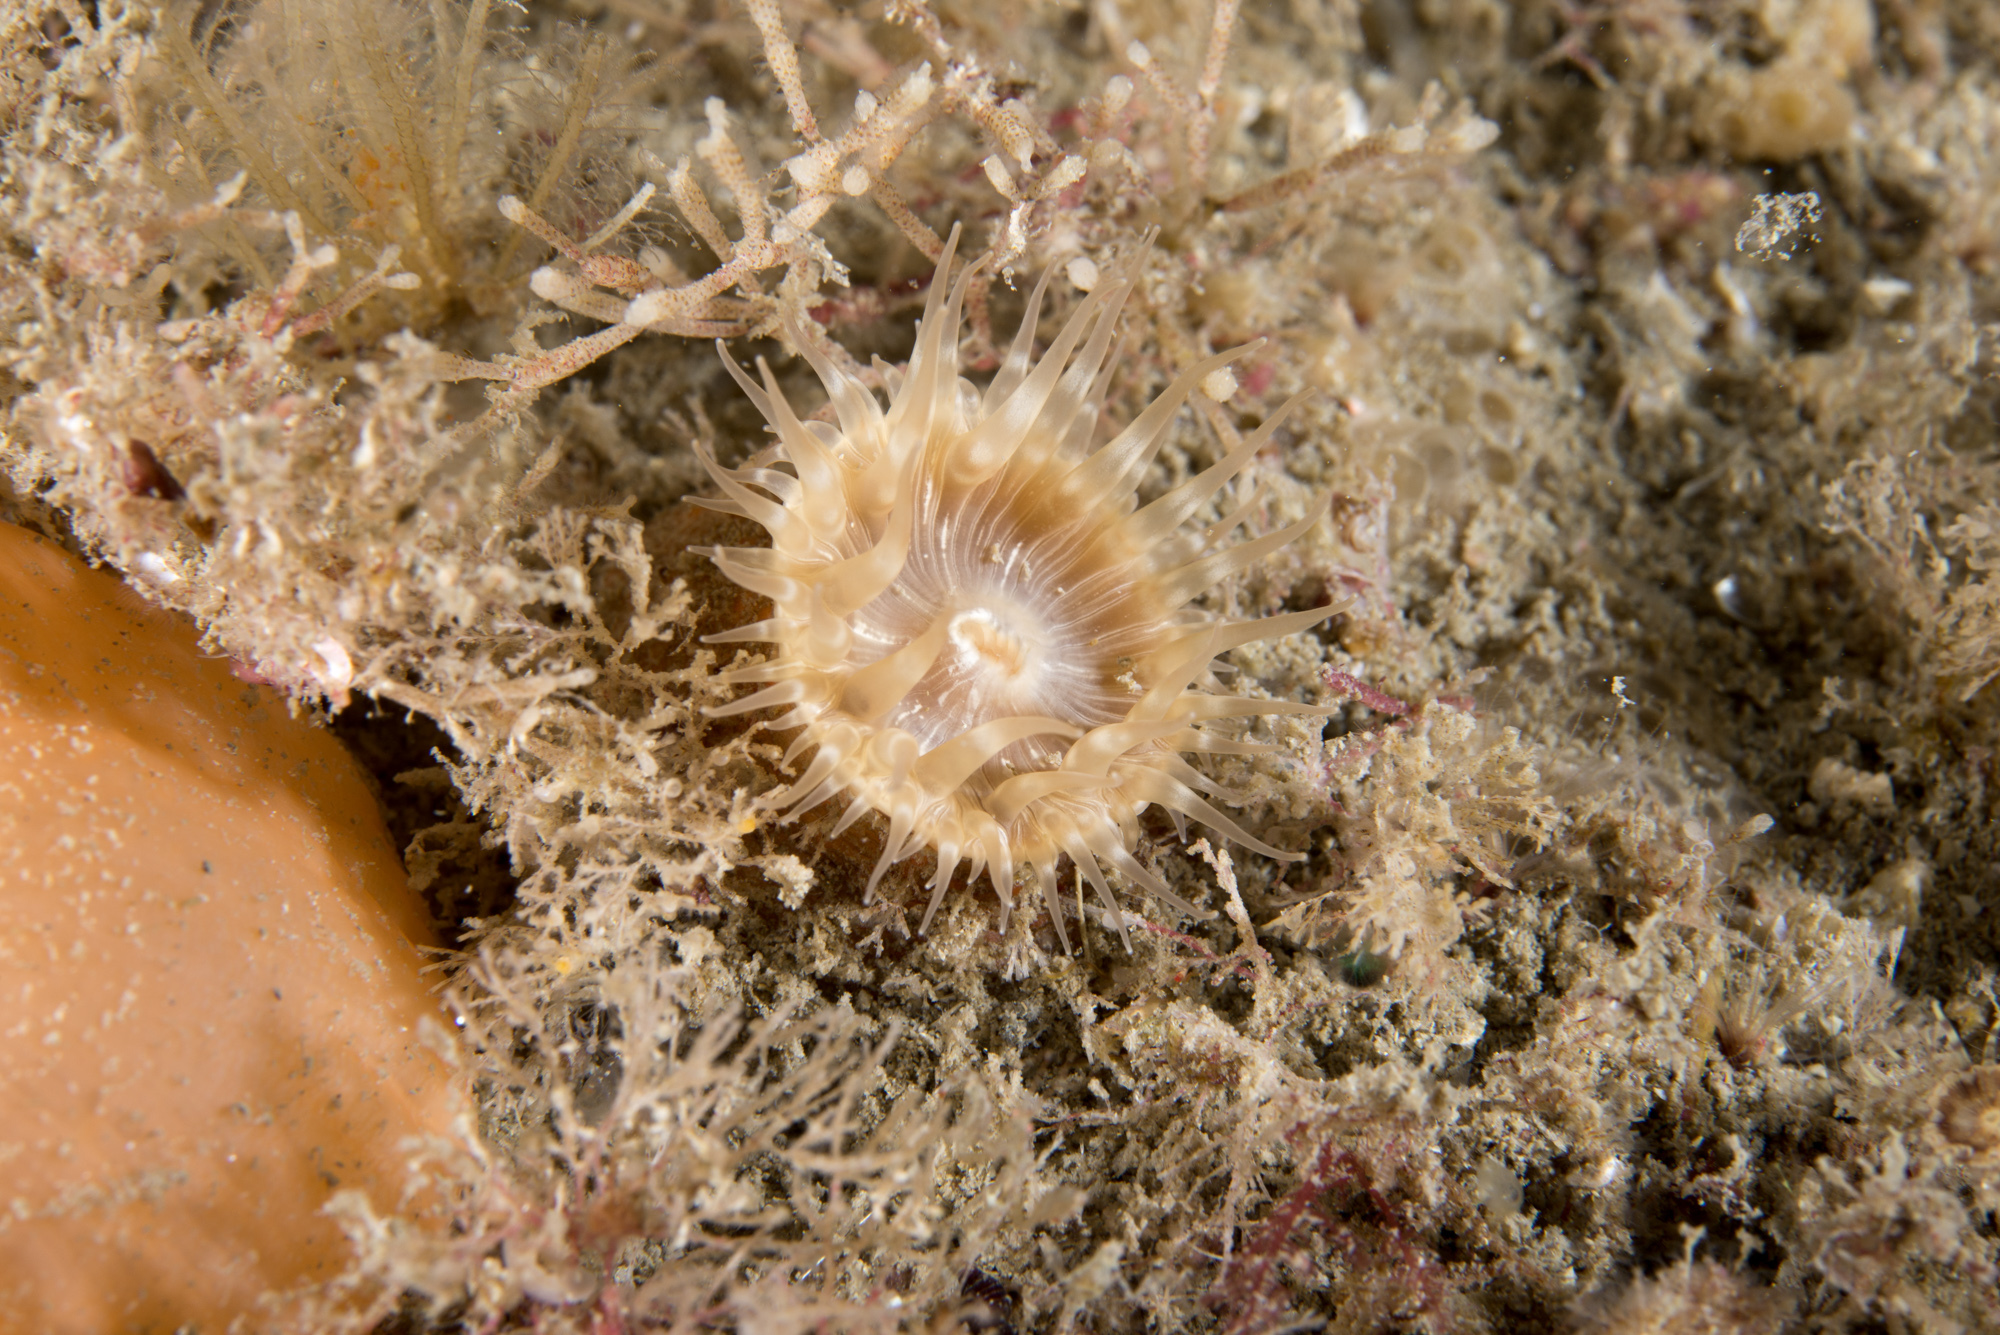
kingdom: Animalia
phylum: Cnidaria
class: Anthozoa
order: Actiniaria
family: Hormathiidae
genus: Hormathia
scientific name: Hormathia coronata
